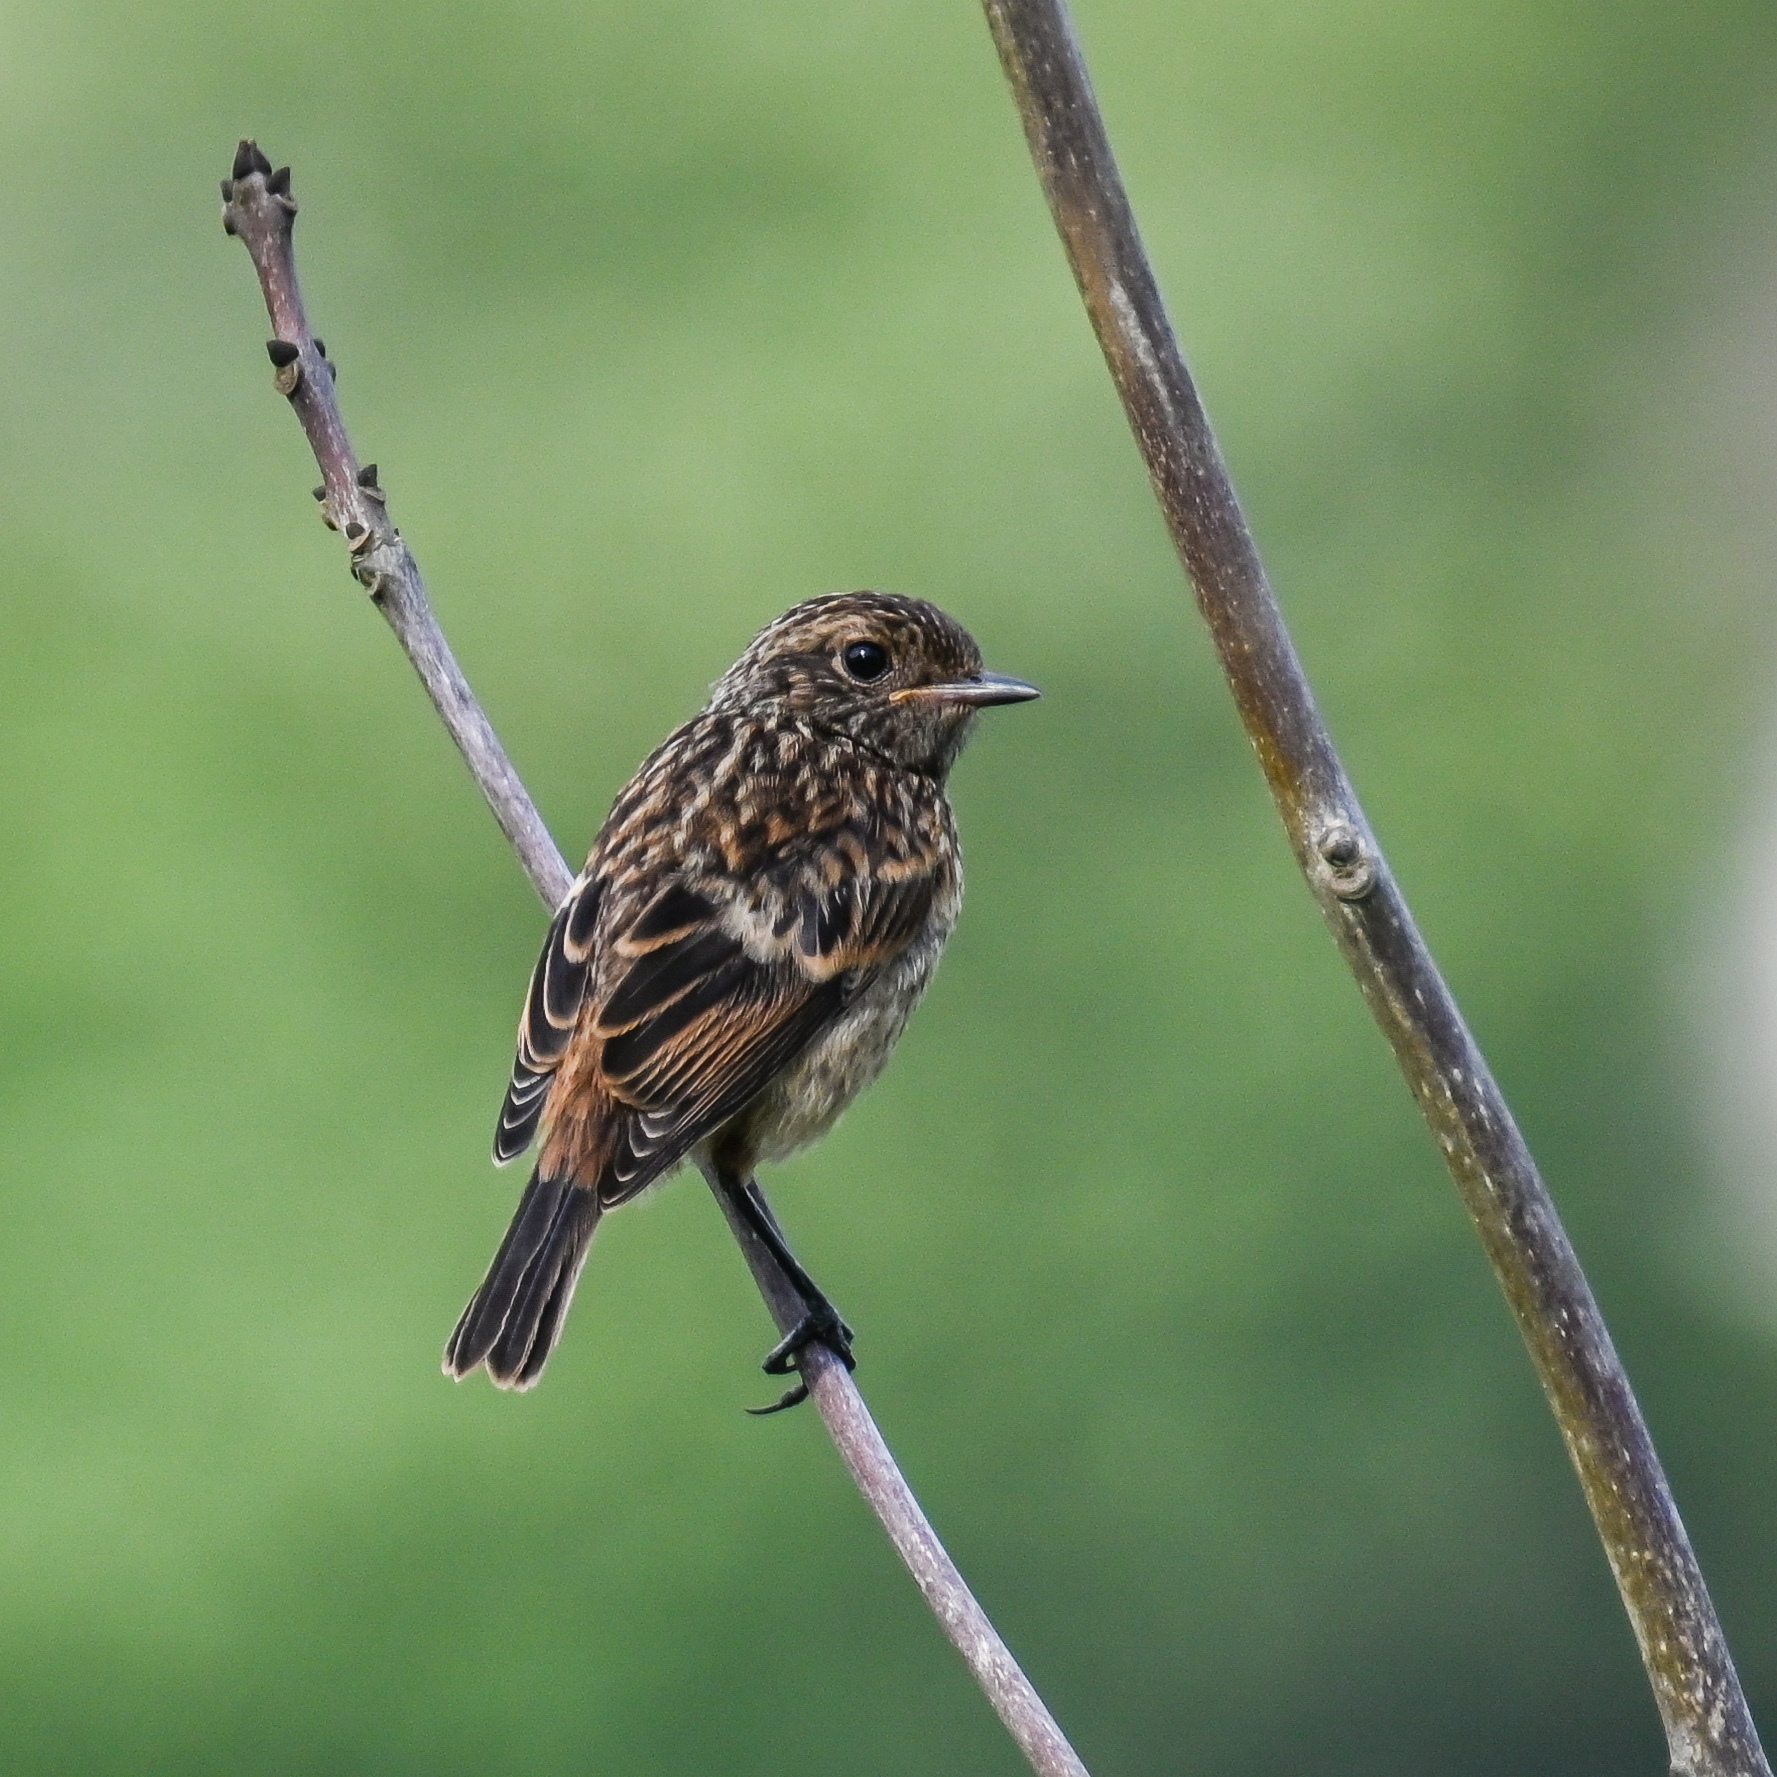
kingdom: Animalia
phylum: Chordata
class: Aves
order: Passeriformes
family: Muscicapidae
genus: Saxicola
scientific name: Saxicola rubicola
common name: European stonechat
